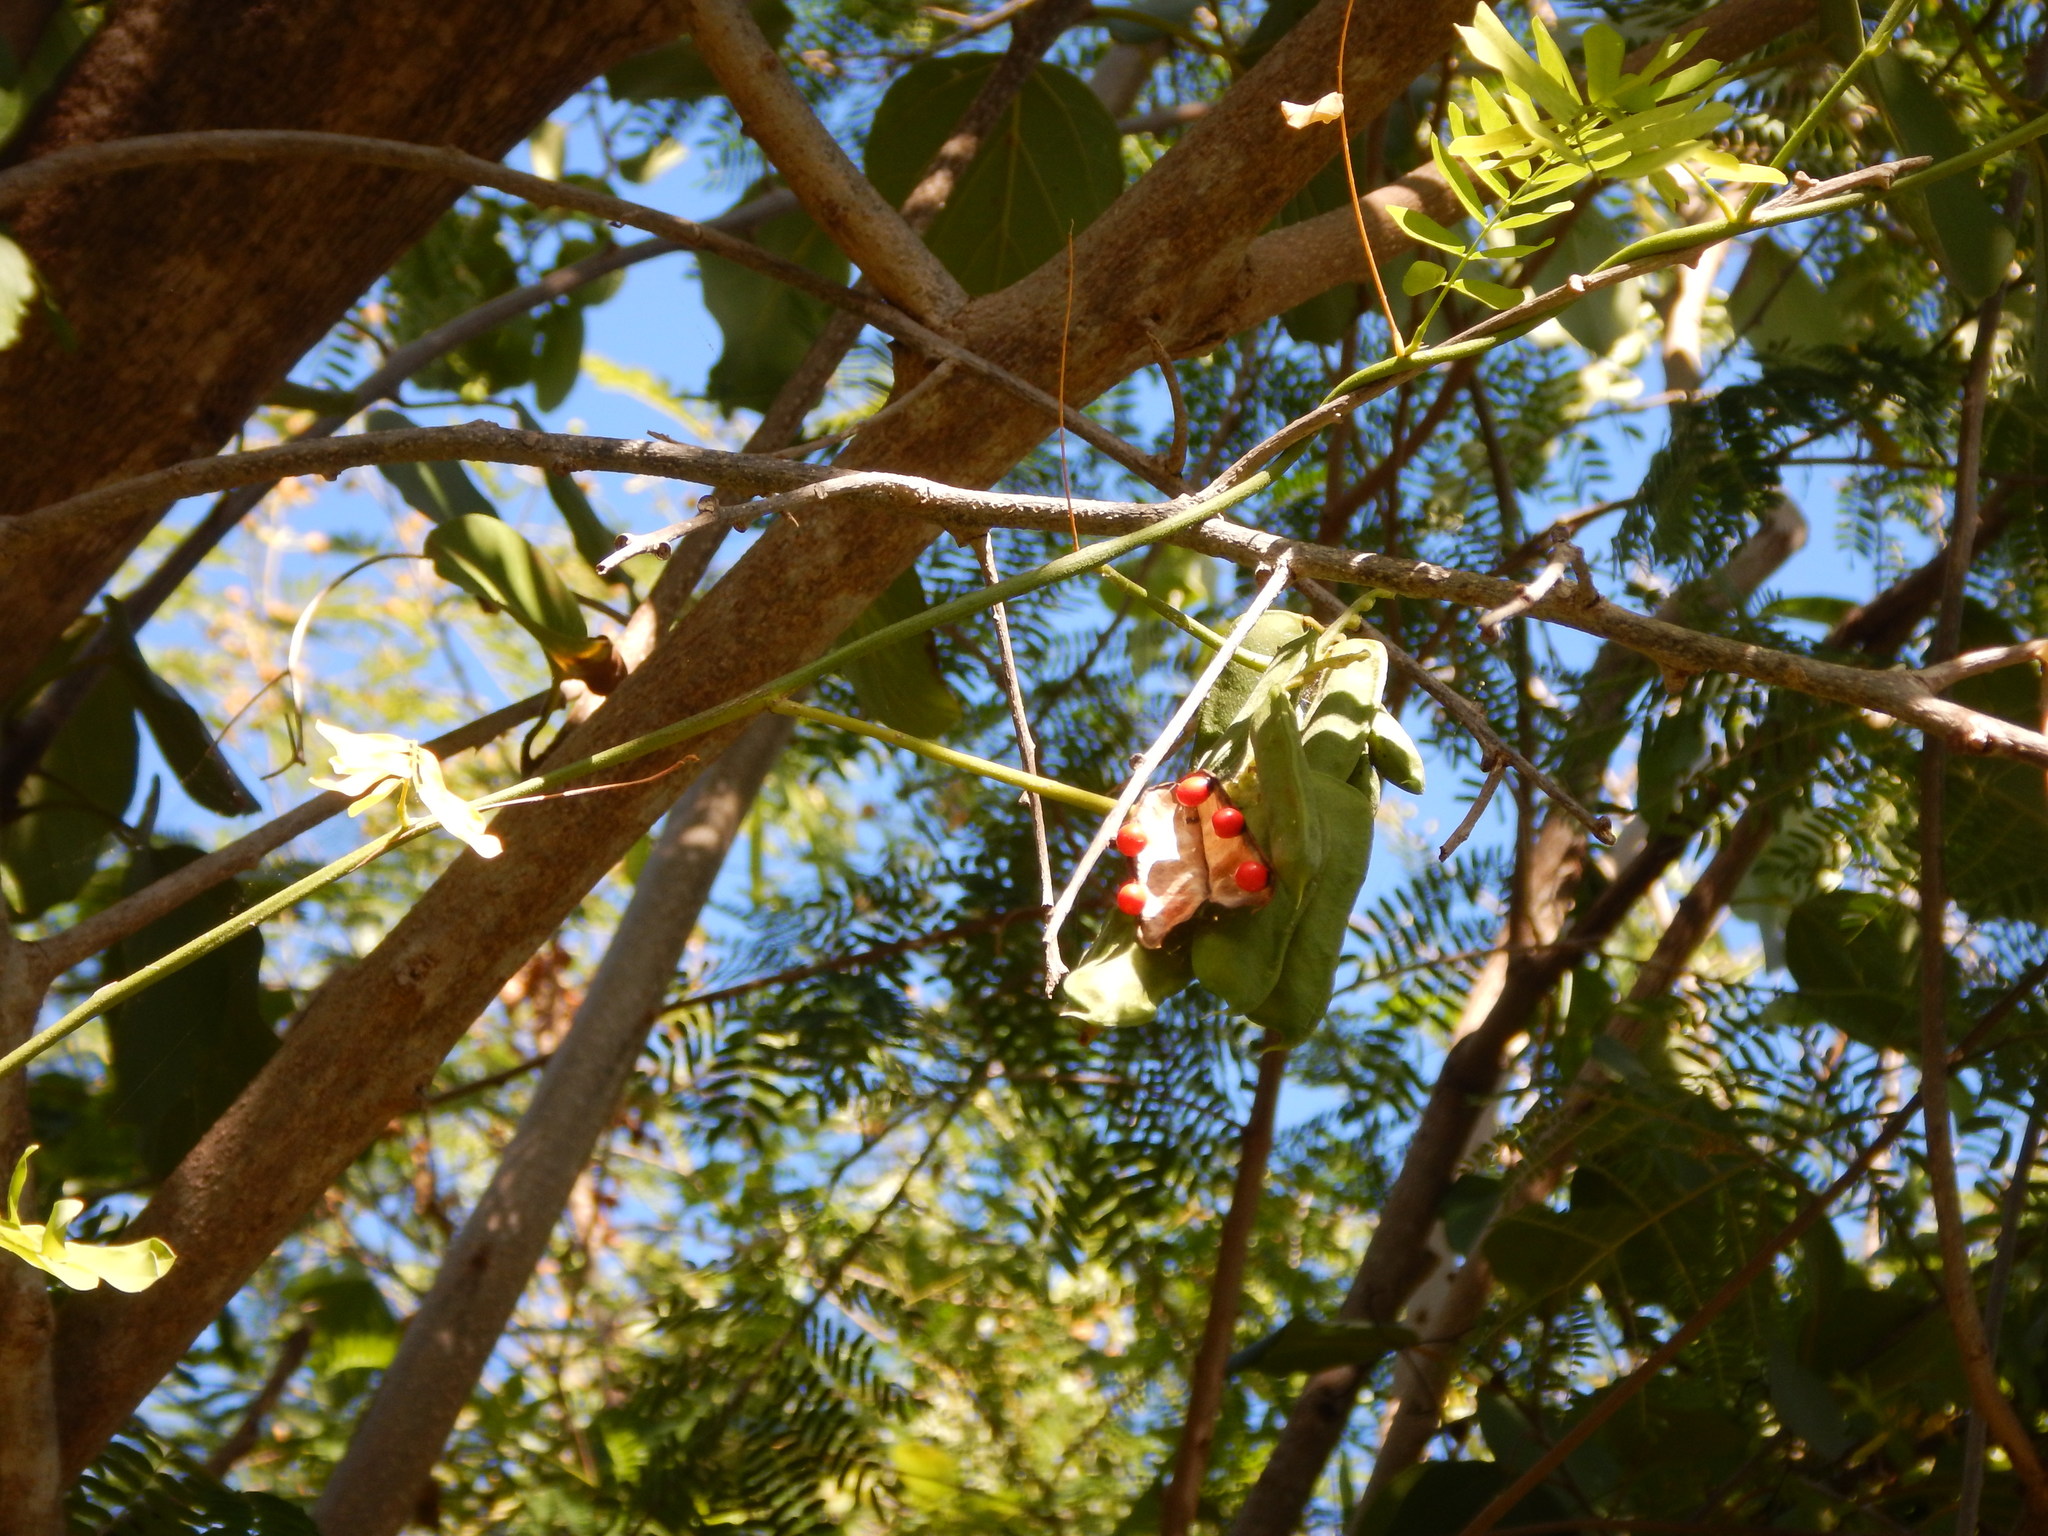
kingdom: Plantae
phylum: Tracheophyta
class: Magnoliopsida
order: Fabales
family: Fabaceae
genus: Abrus
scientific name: Abrus precatorius
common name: Rosarypea
